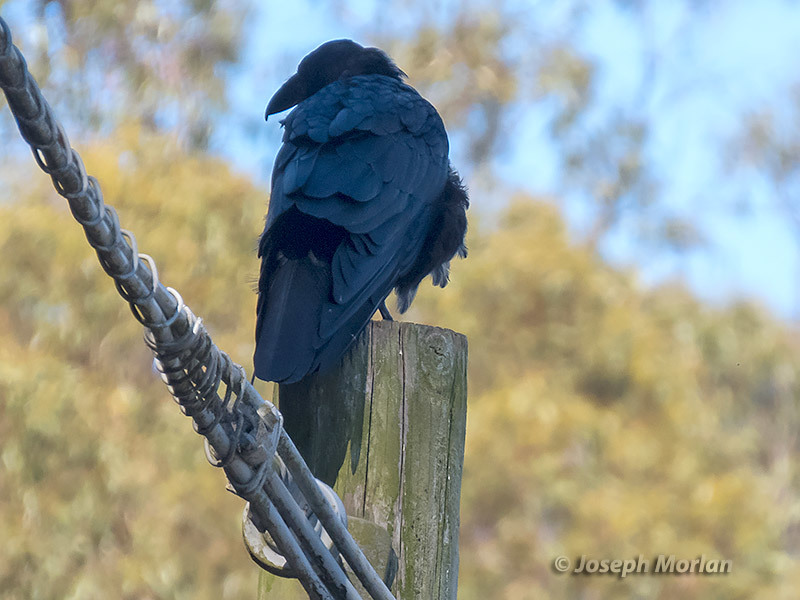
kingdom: Animalia
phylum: Chordata
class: Aves
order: Passeriformes
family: Corvidae
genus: Corvus
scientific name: Corvus corax
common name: Common raven
